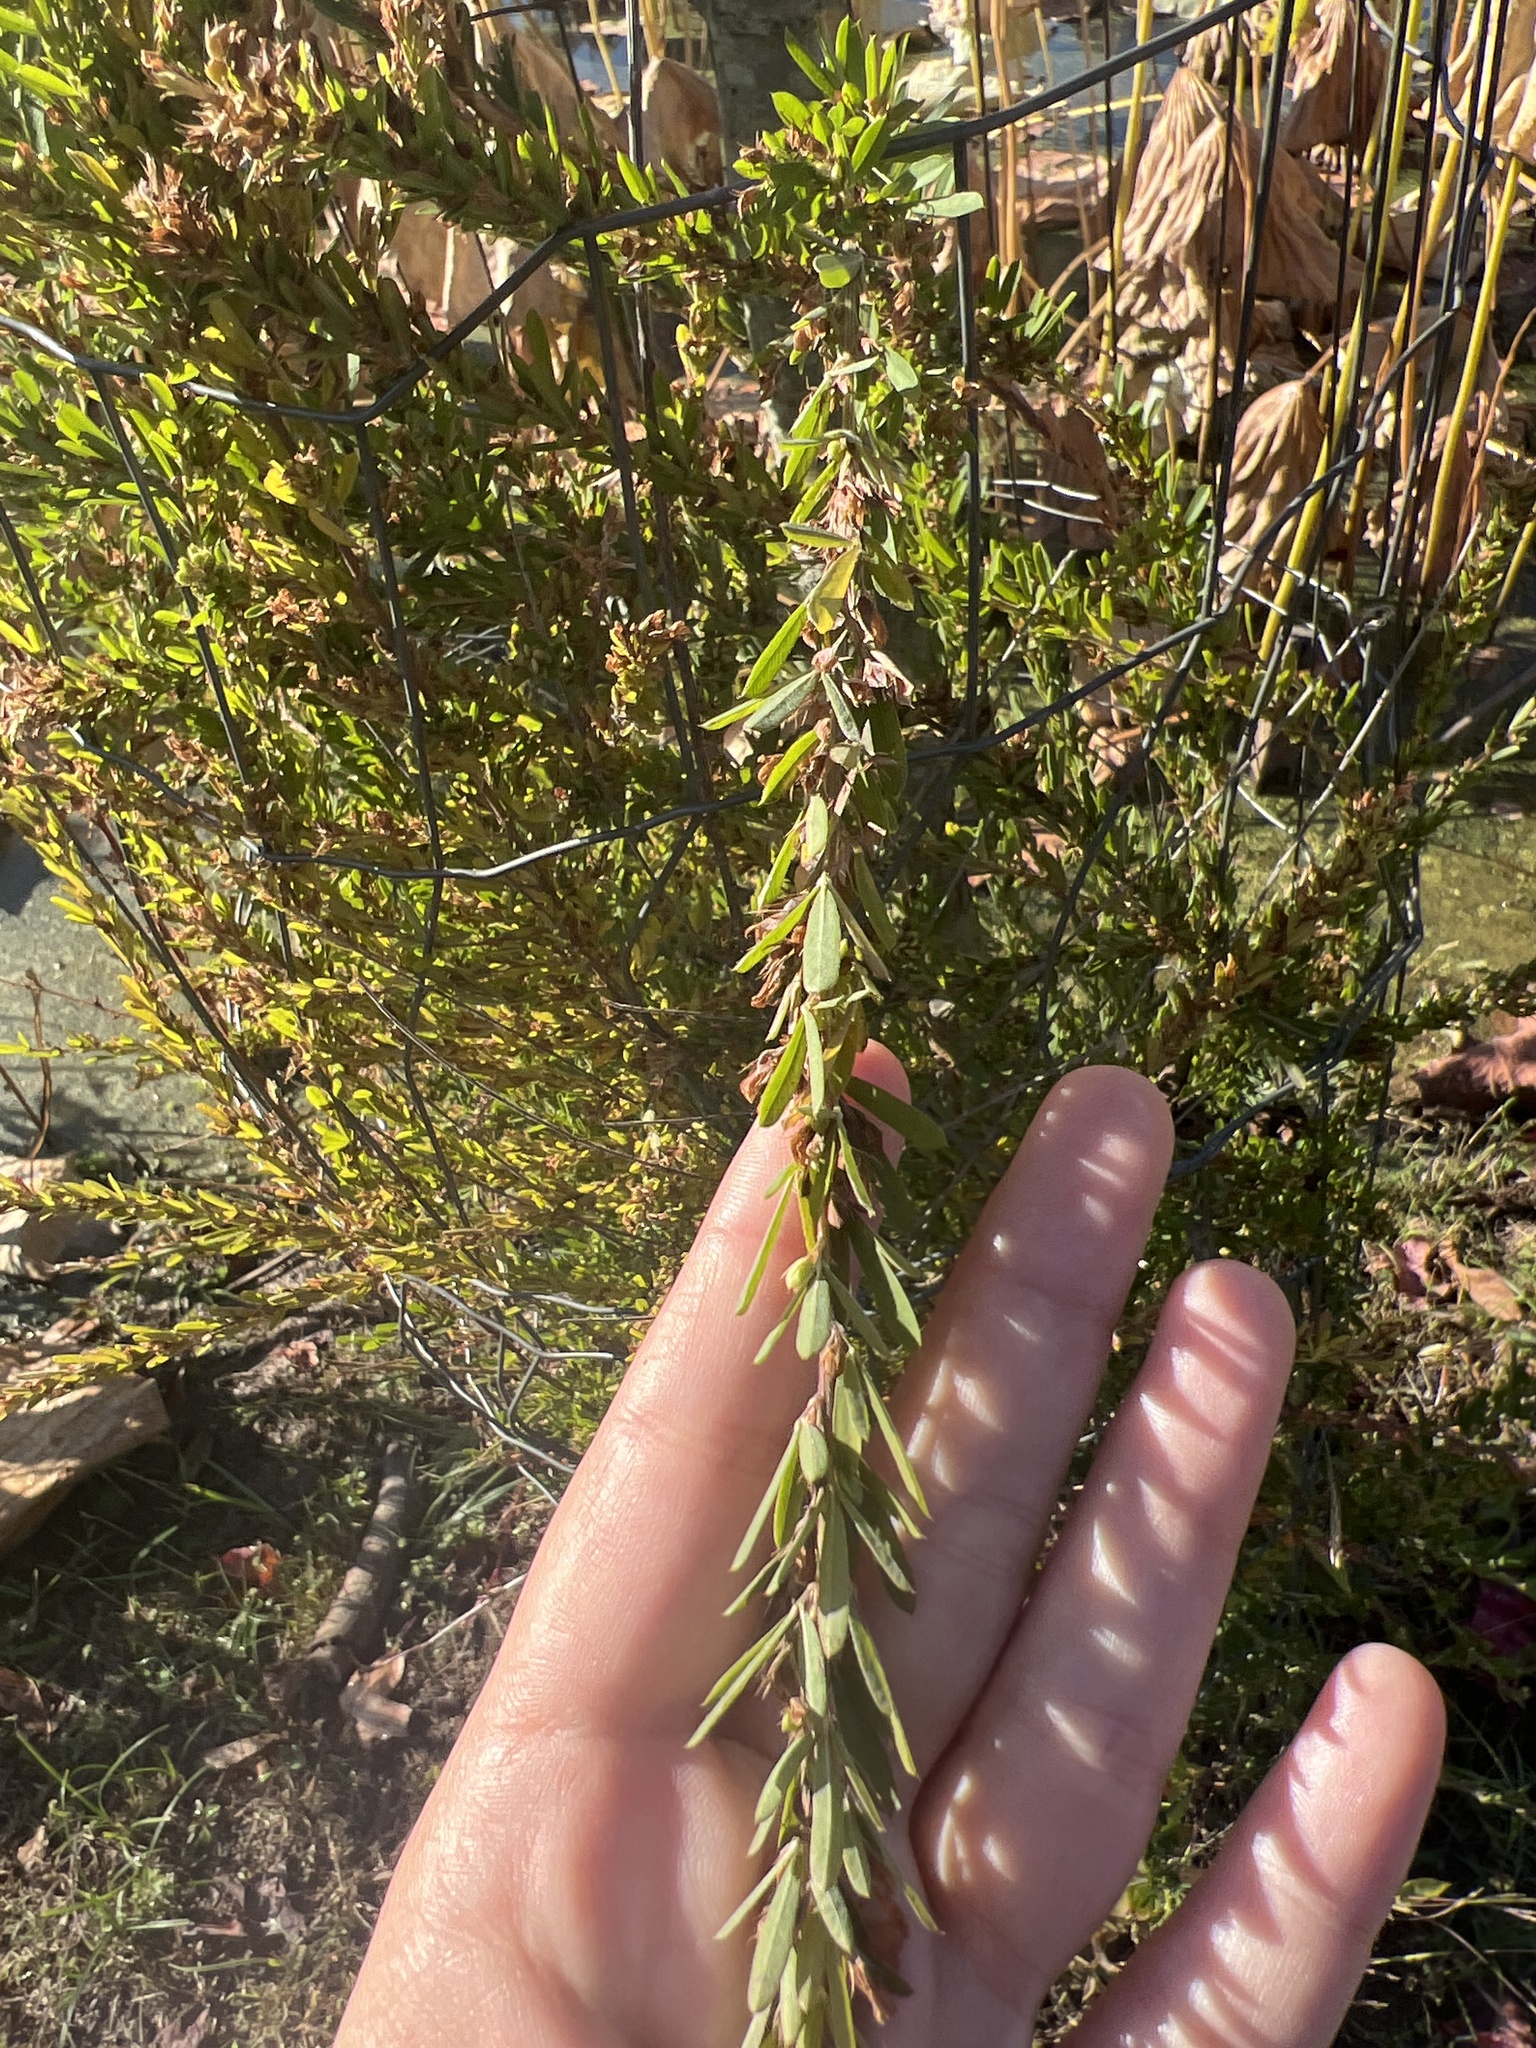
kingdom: Plantae
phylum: Tracheophyta
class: Magnoliopsida
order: Fabales
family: Fabaceae
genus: Lespedeza
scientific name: Lespedeza cuneata
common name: Chinese bush-clover
